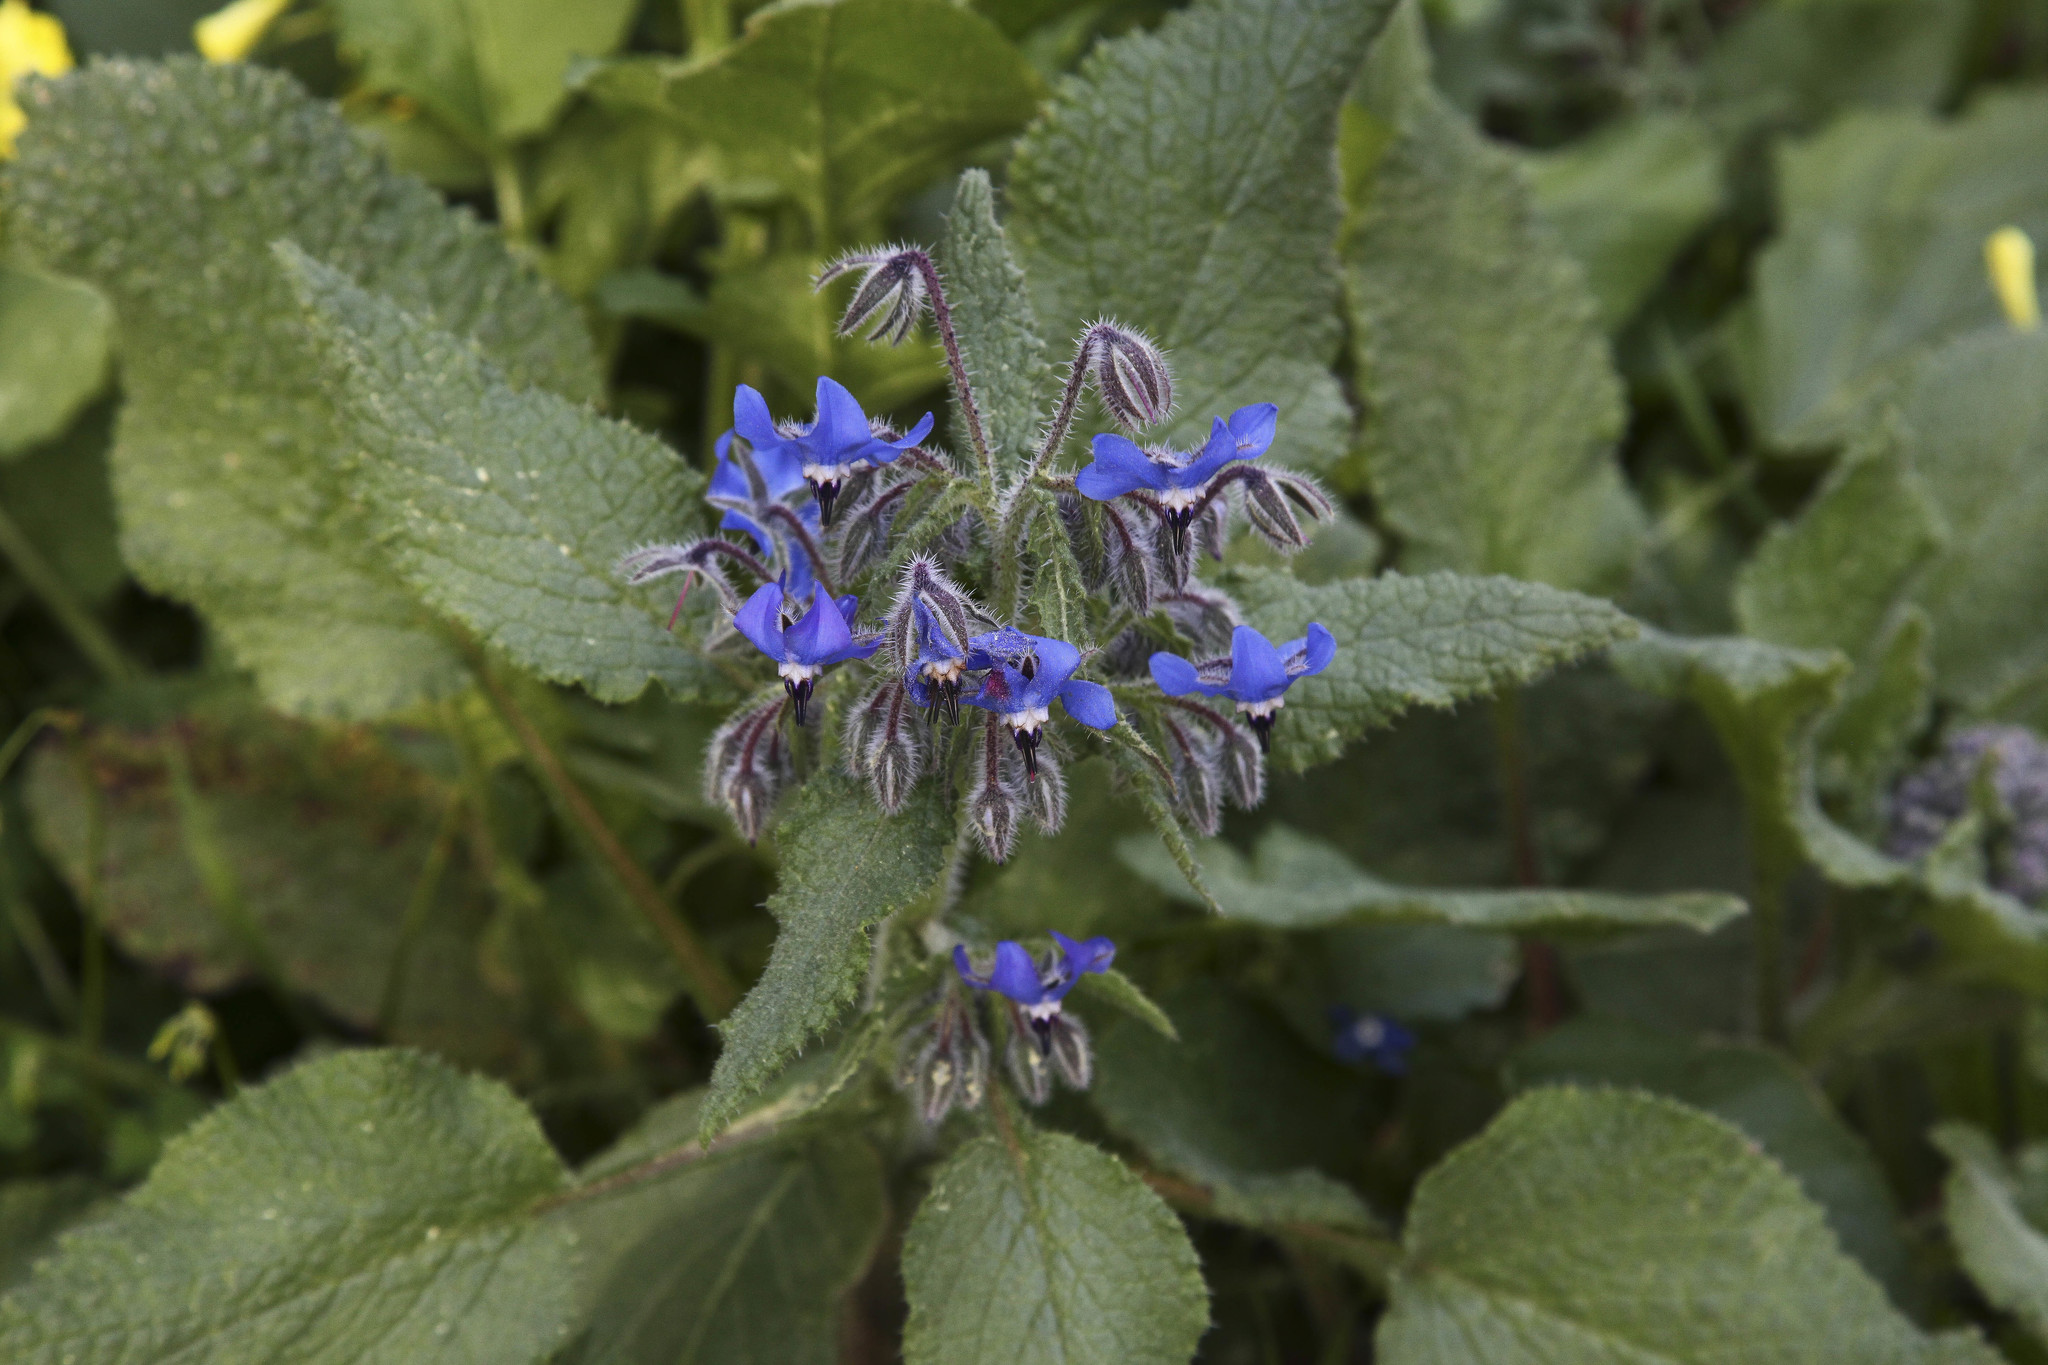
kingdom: Plantae
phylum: Tracheophyta
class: Magnoliopsida
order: Boraginales
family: Boraginaceae
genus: Borago
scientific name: Borago officinalis
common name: Borage
